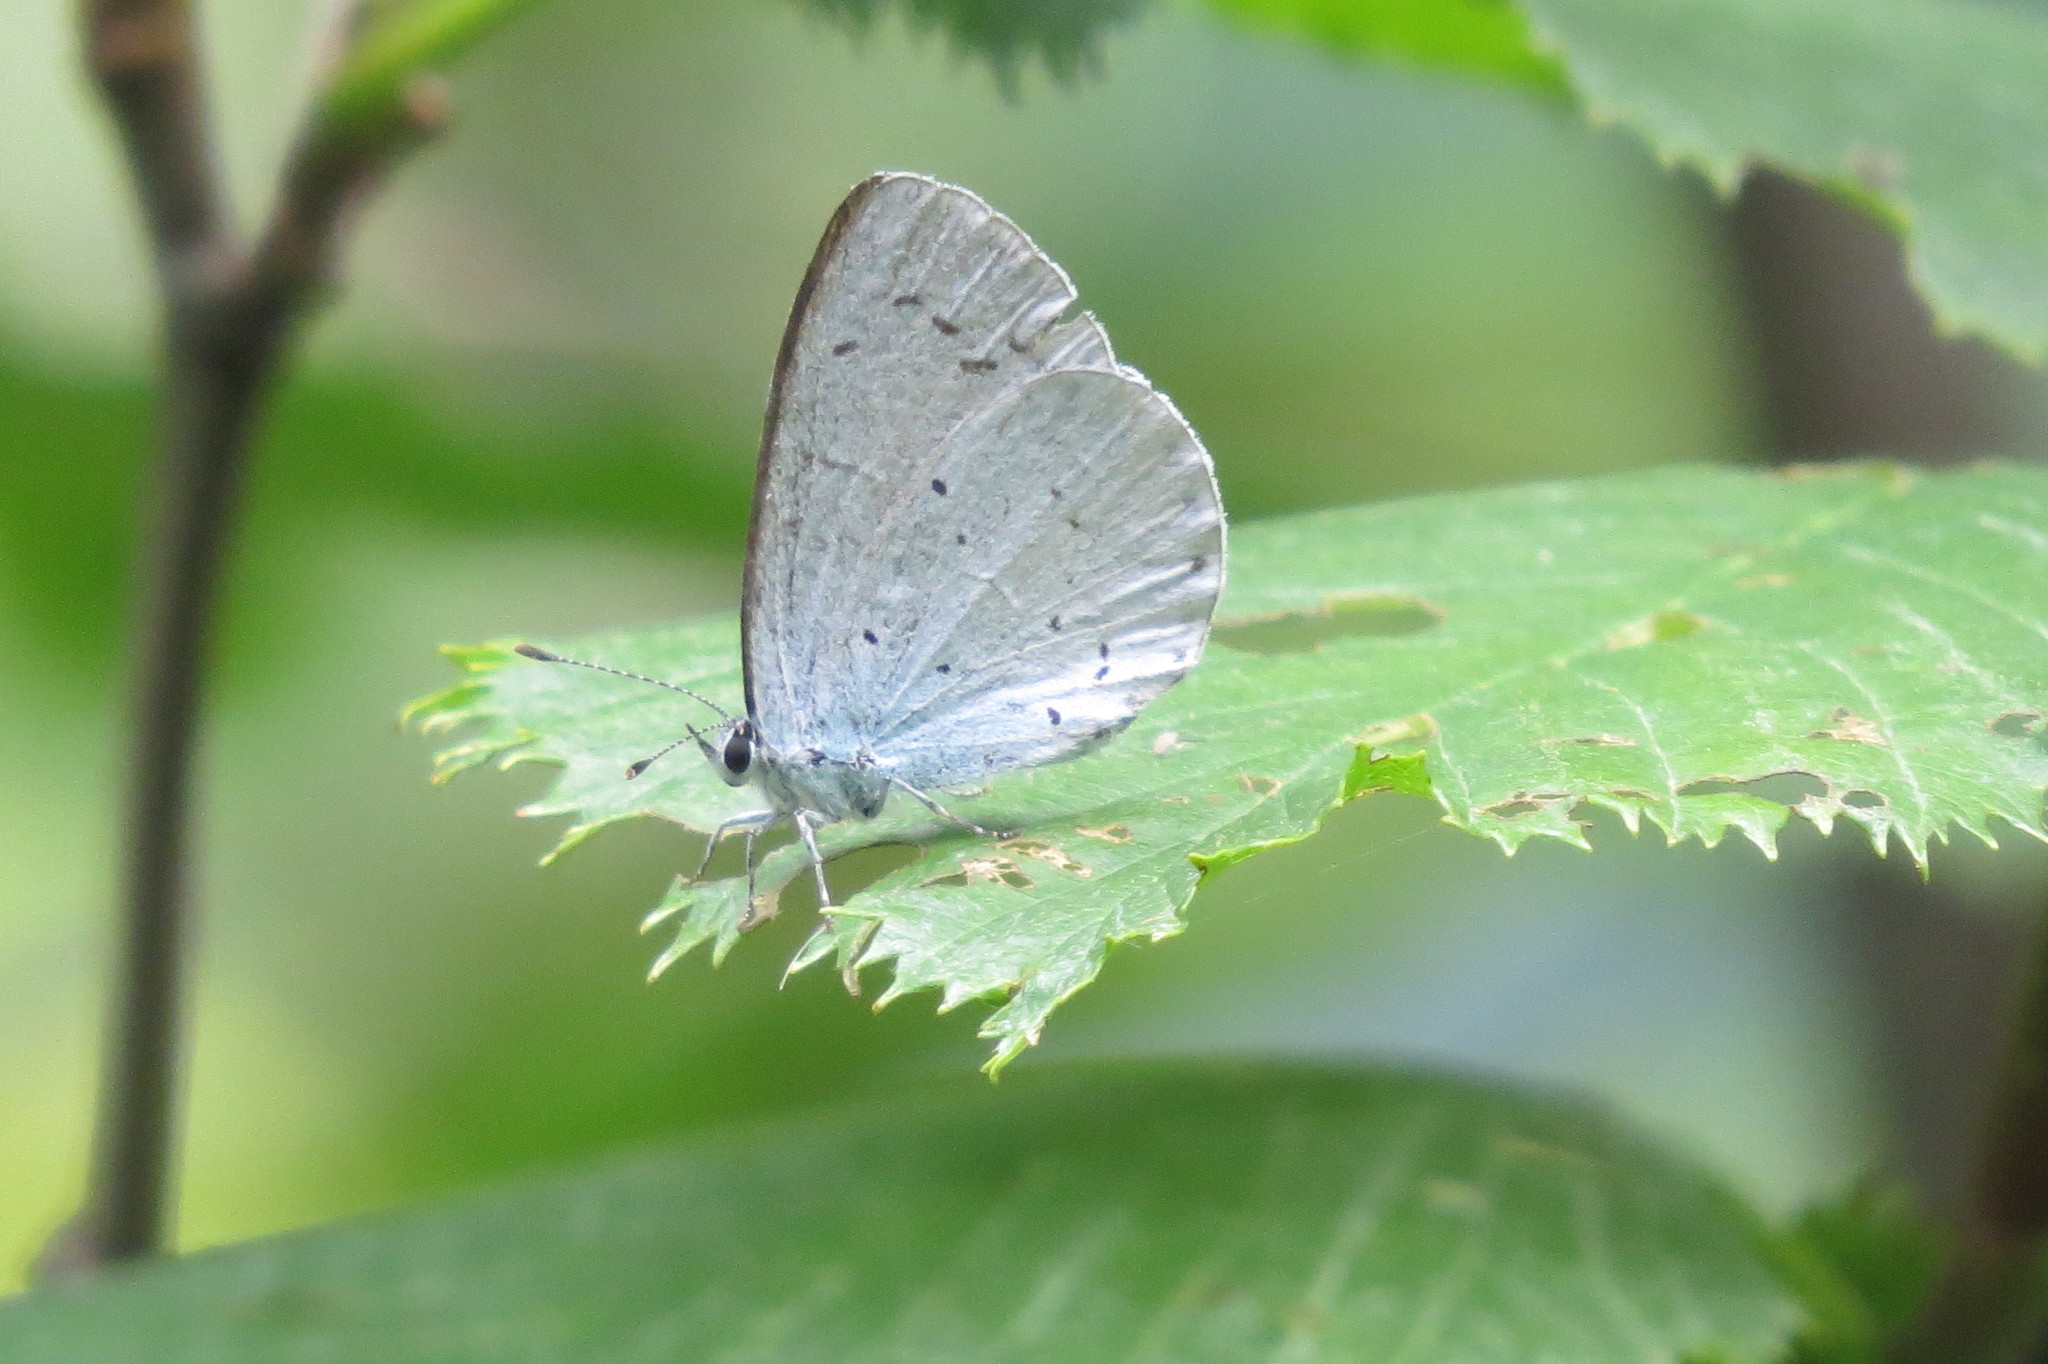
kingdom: Animalia
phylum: Arthropoda
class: Insecta
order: Lepidoptera
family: Lycaenidae
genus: Celastrina
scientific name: Celastrina argiolus
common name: Holly blue
